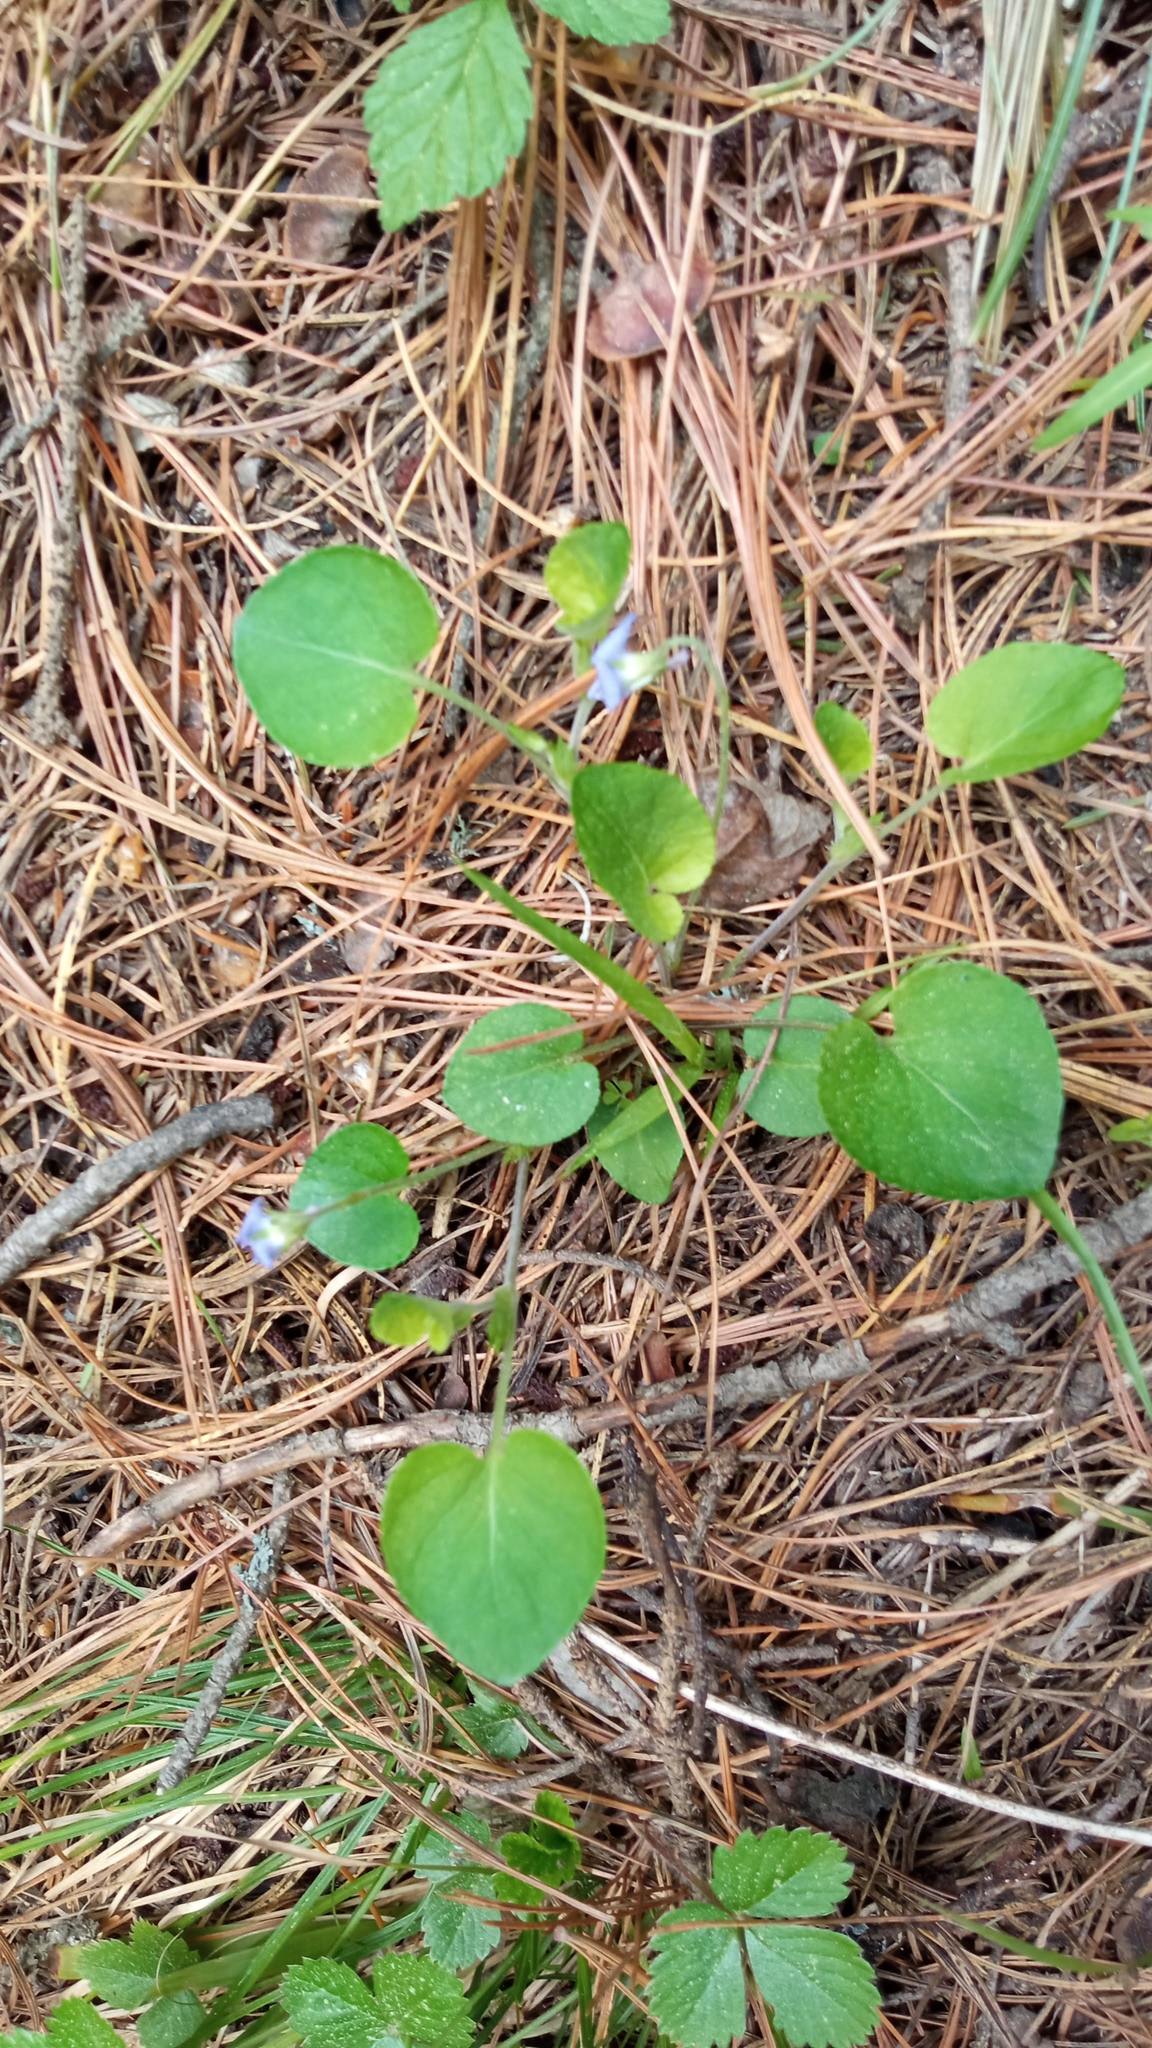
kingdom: Plantae
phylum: Tracheophyta
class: Magnoliopsida
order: Malpighiales
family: Violaceae
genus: Viola
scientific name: Viola rupestris
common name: Teesdale violet
